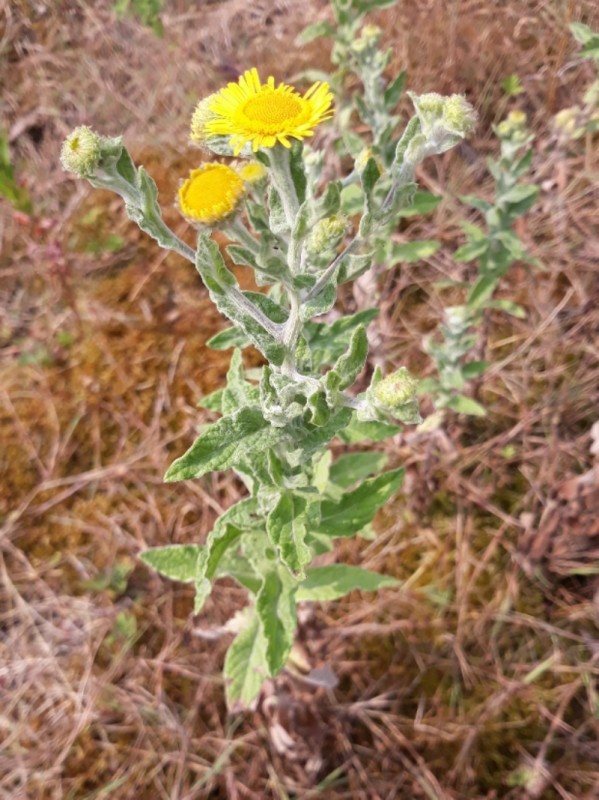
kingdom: Plantae
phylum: Tracheophyta
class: Magnoliopsida
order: Asterales
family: Asteraceae
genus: Pulicaria
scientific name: Pulicaria dysenterica
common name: Common fleabane
